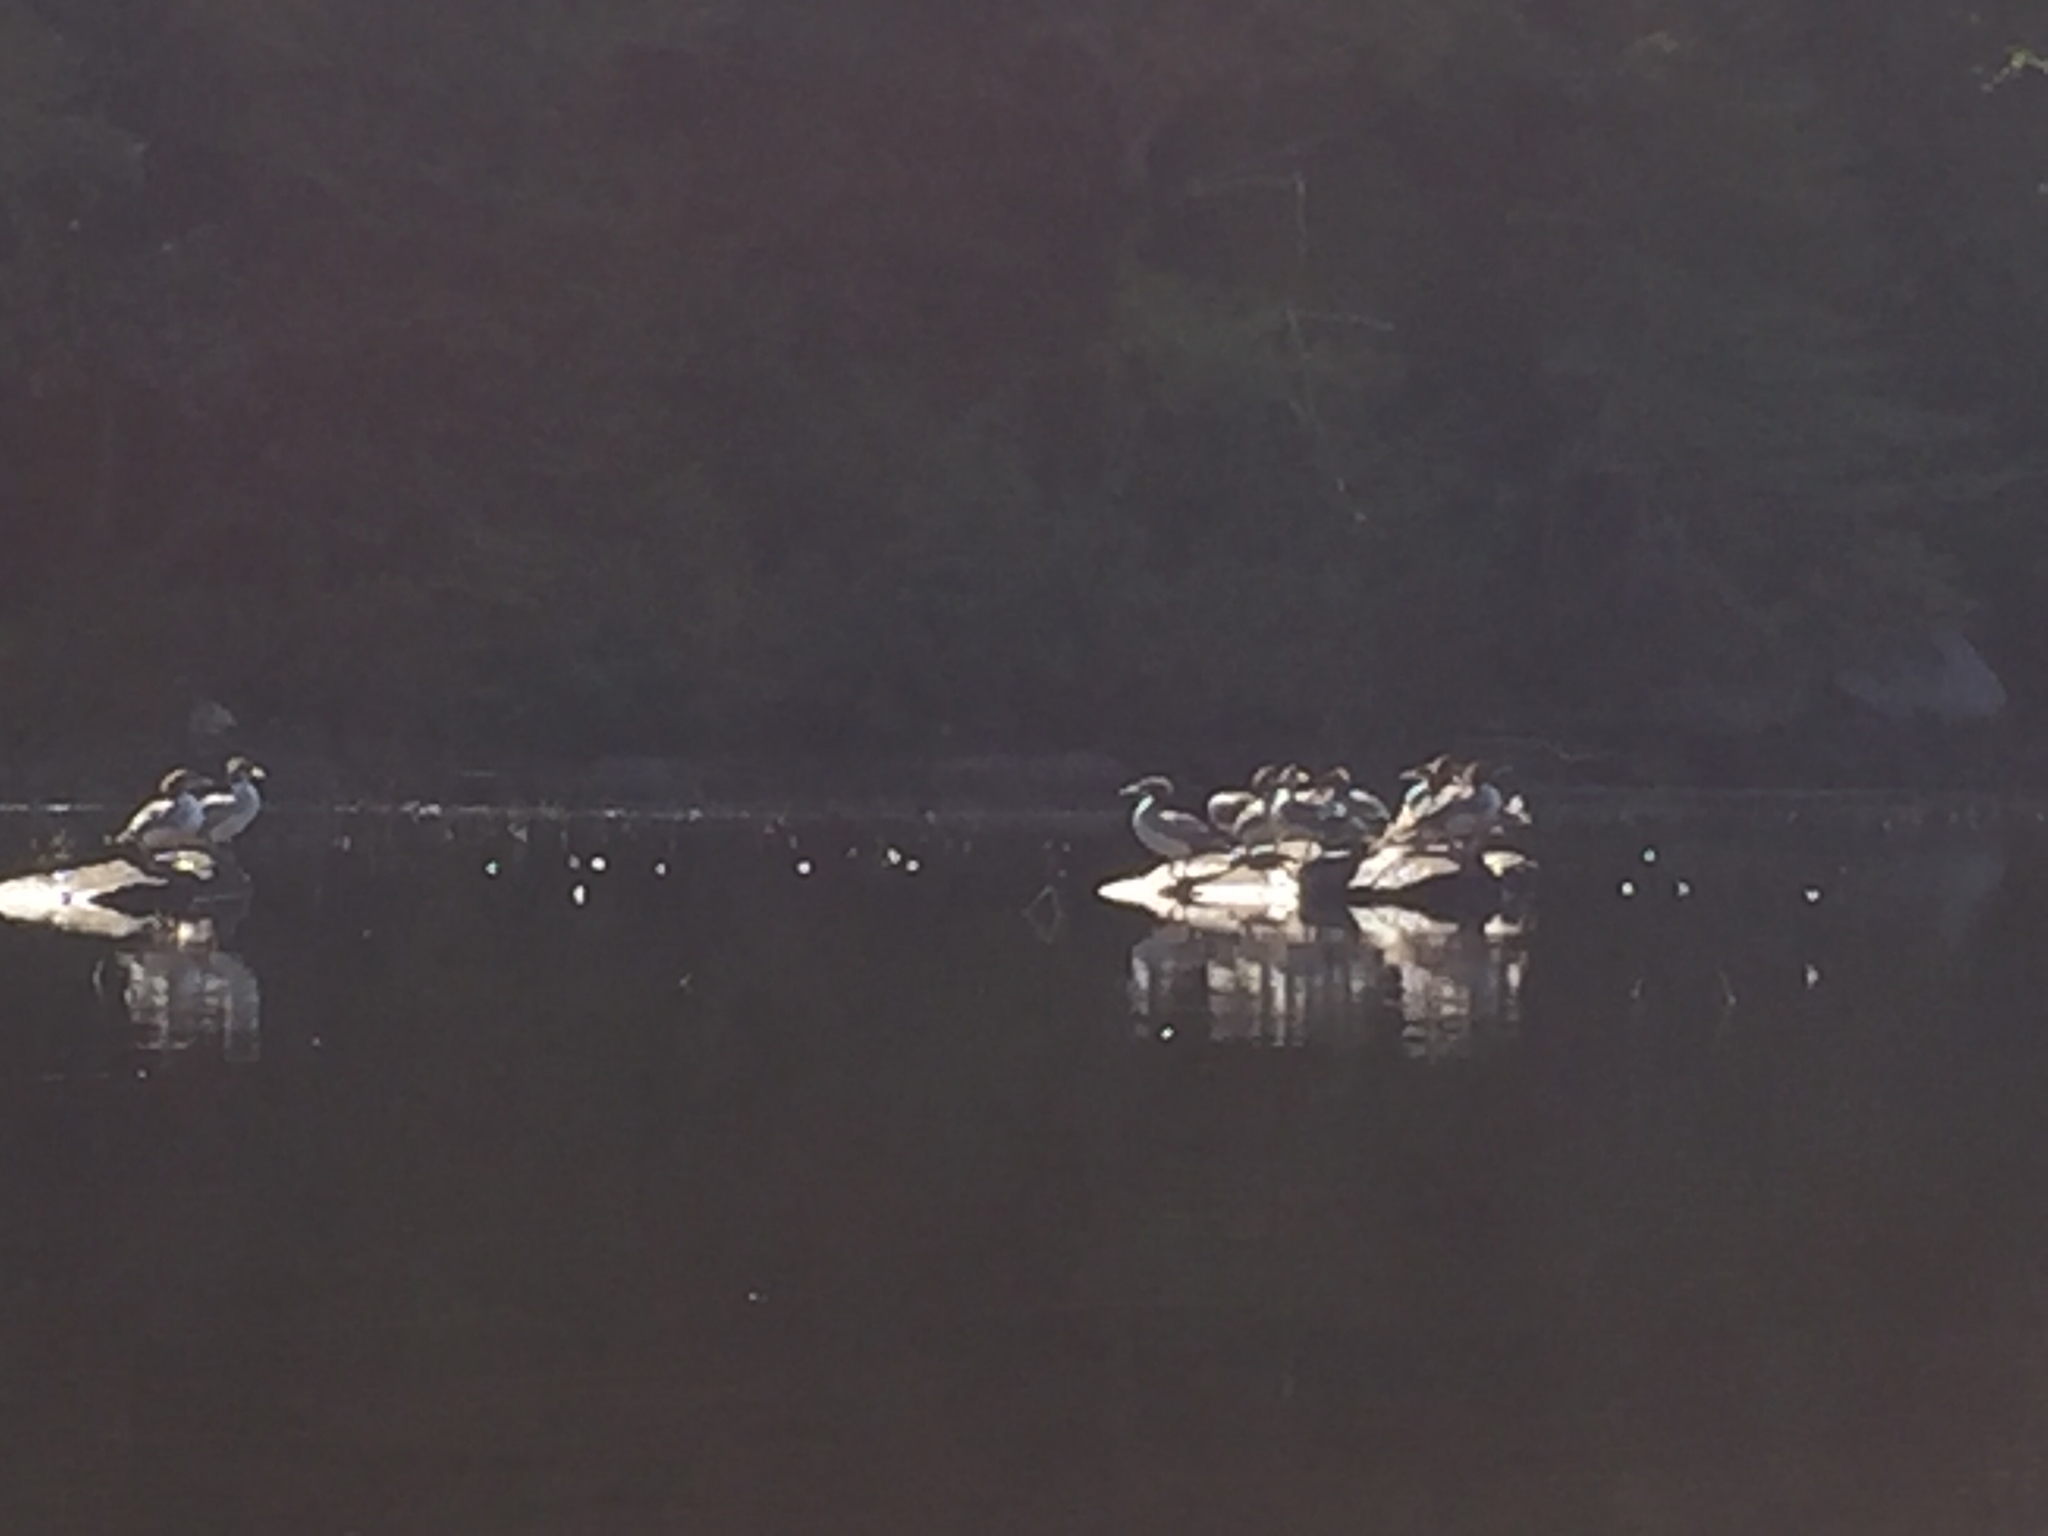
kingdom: Animalia
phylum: Chordata
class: Aves
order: Anseriformes
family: Anatidae
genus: Mergus
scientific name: Mergus merganser
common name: Common merganser
